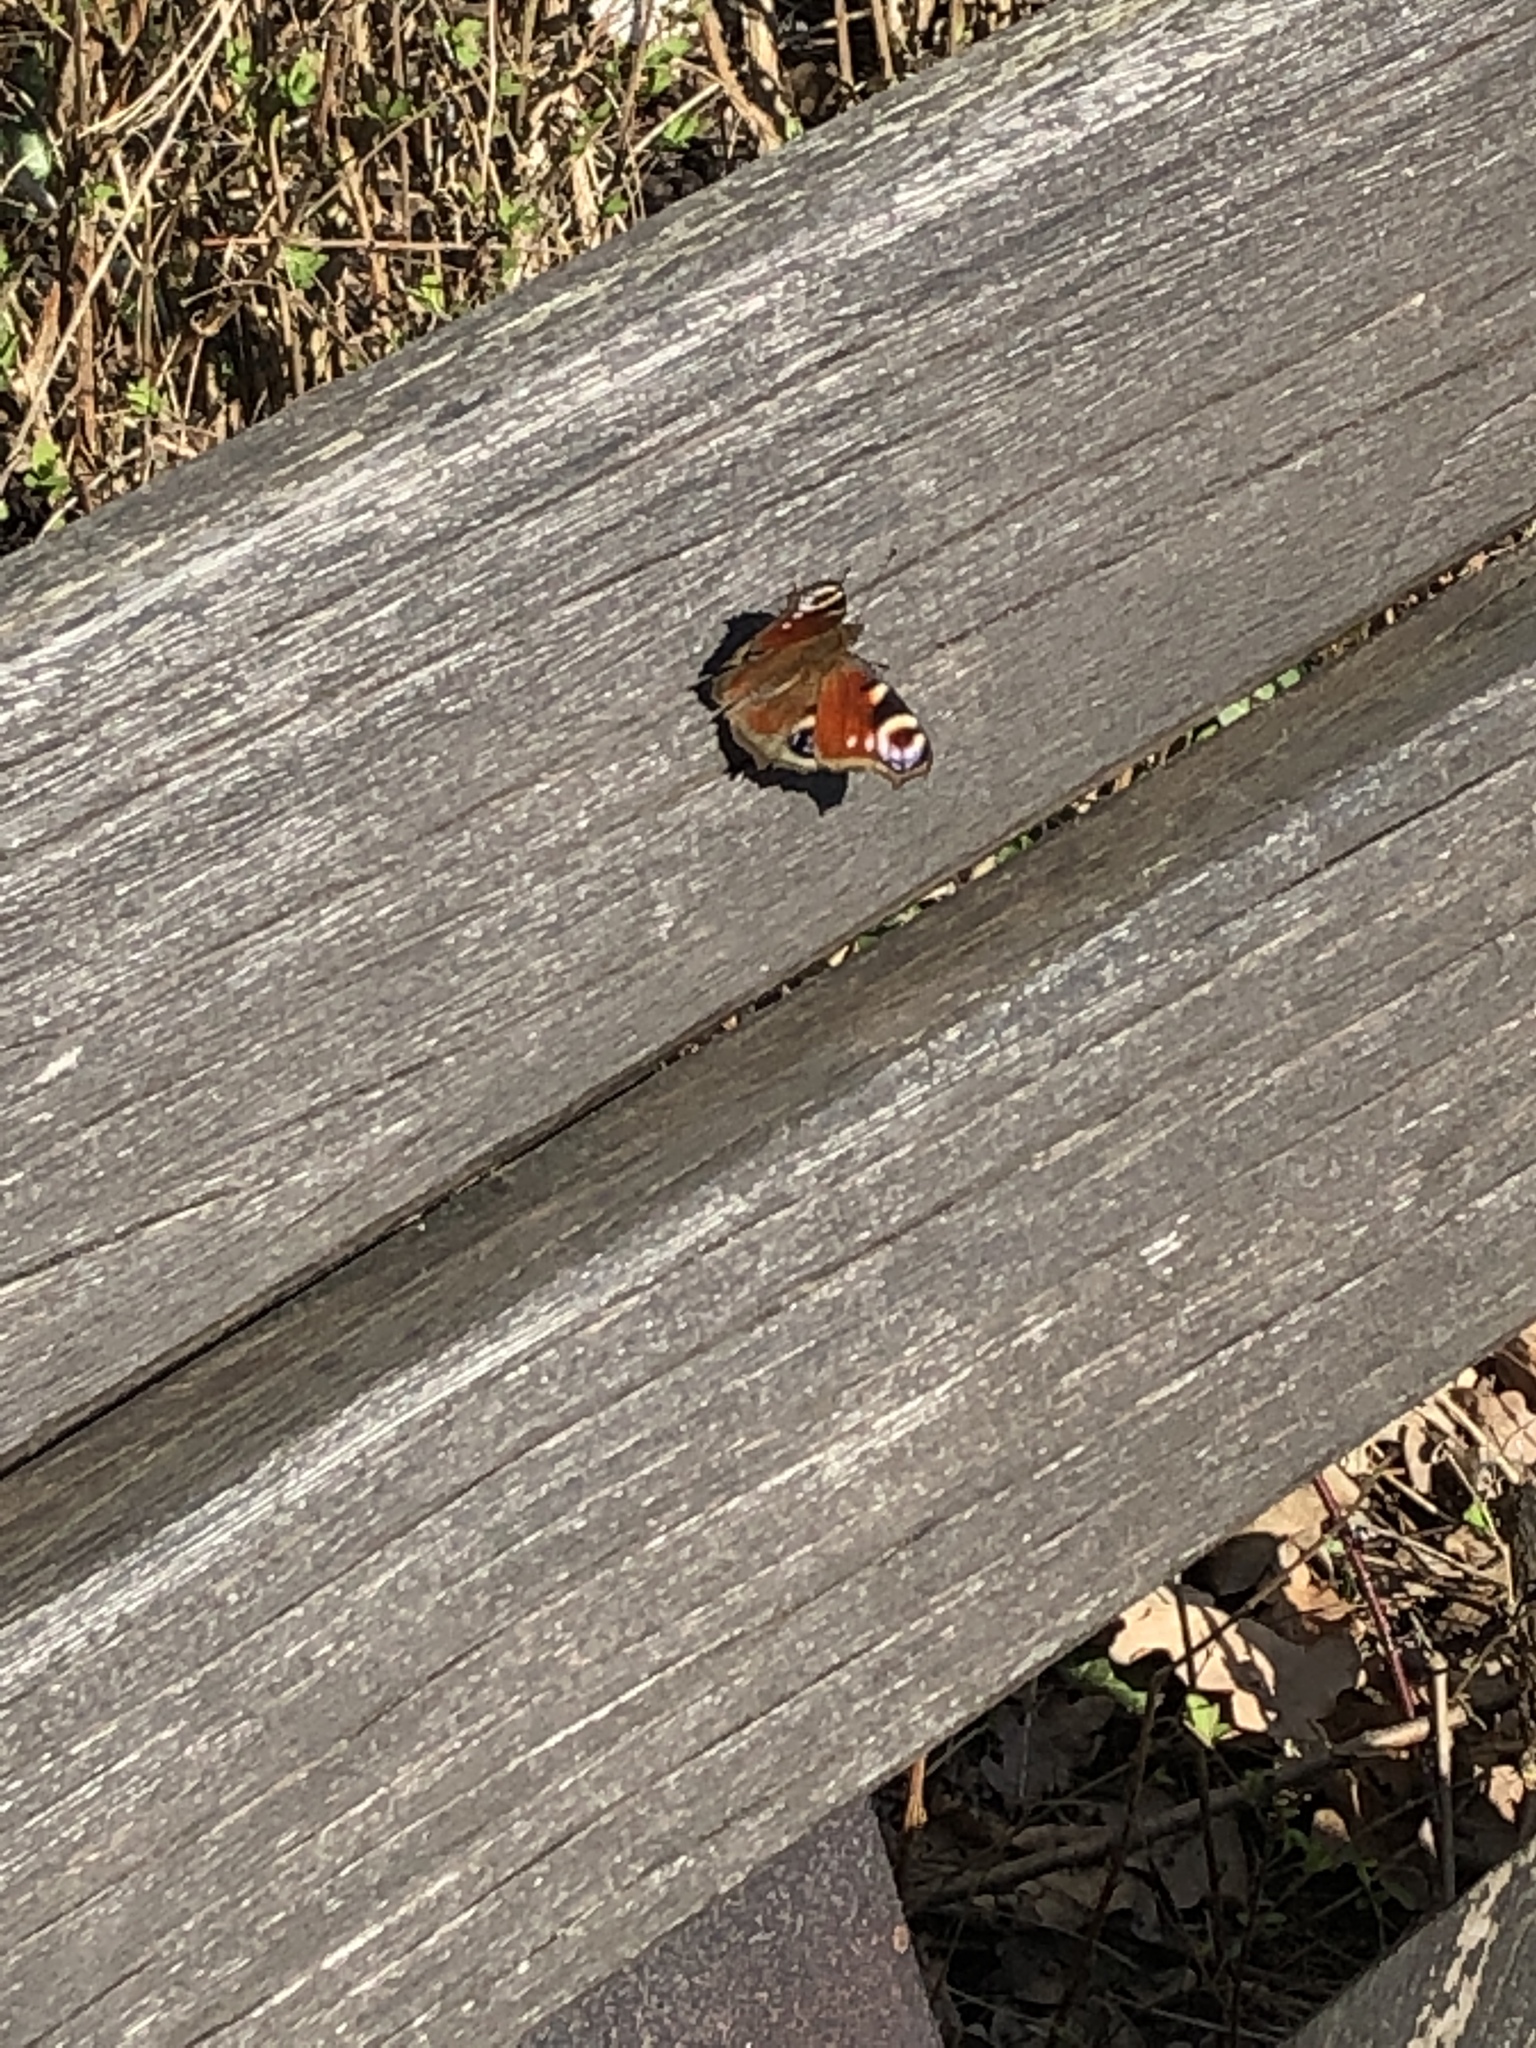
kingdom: Animalia
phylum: Arthropoda
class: Insecta
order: Lepidoptera
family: Nymphalidae
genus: Aglais
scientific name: Aglais io
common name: Peacock
